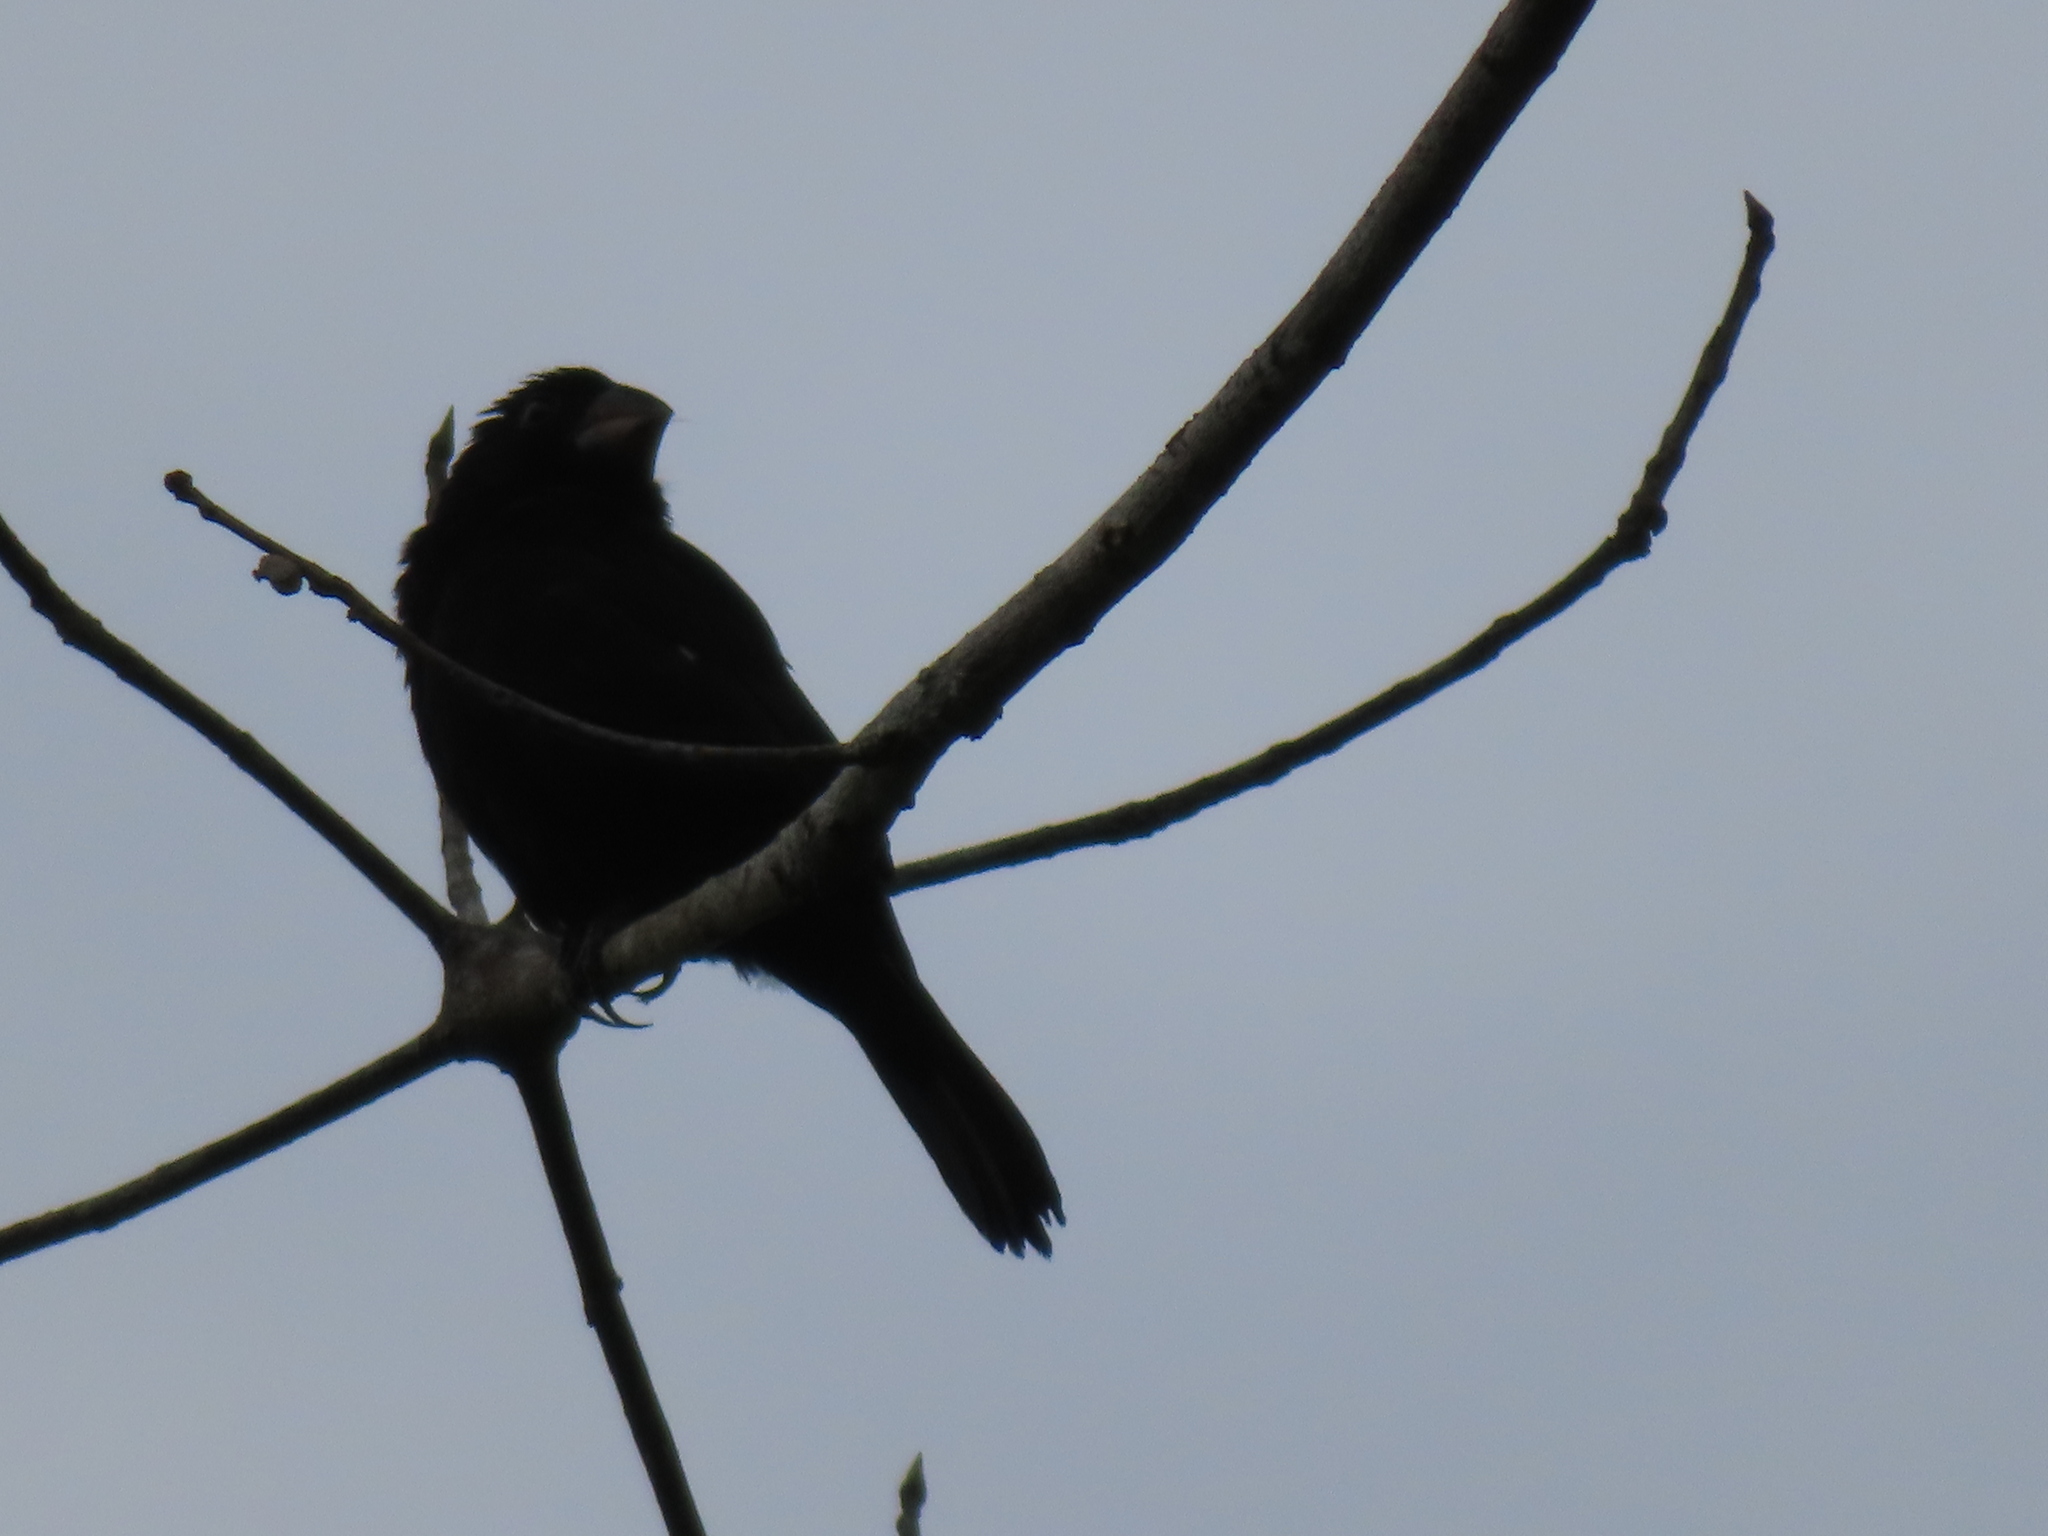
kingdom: Animalia
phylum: Chordata
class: Aves
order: Passeriformes
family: Thraupidae
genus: Sporophila
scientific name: Sporophila funerea
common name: Thick-billed seed-finch
